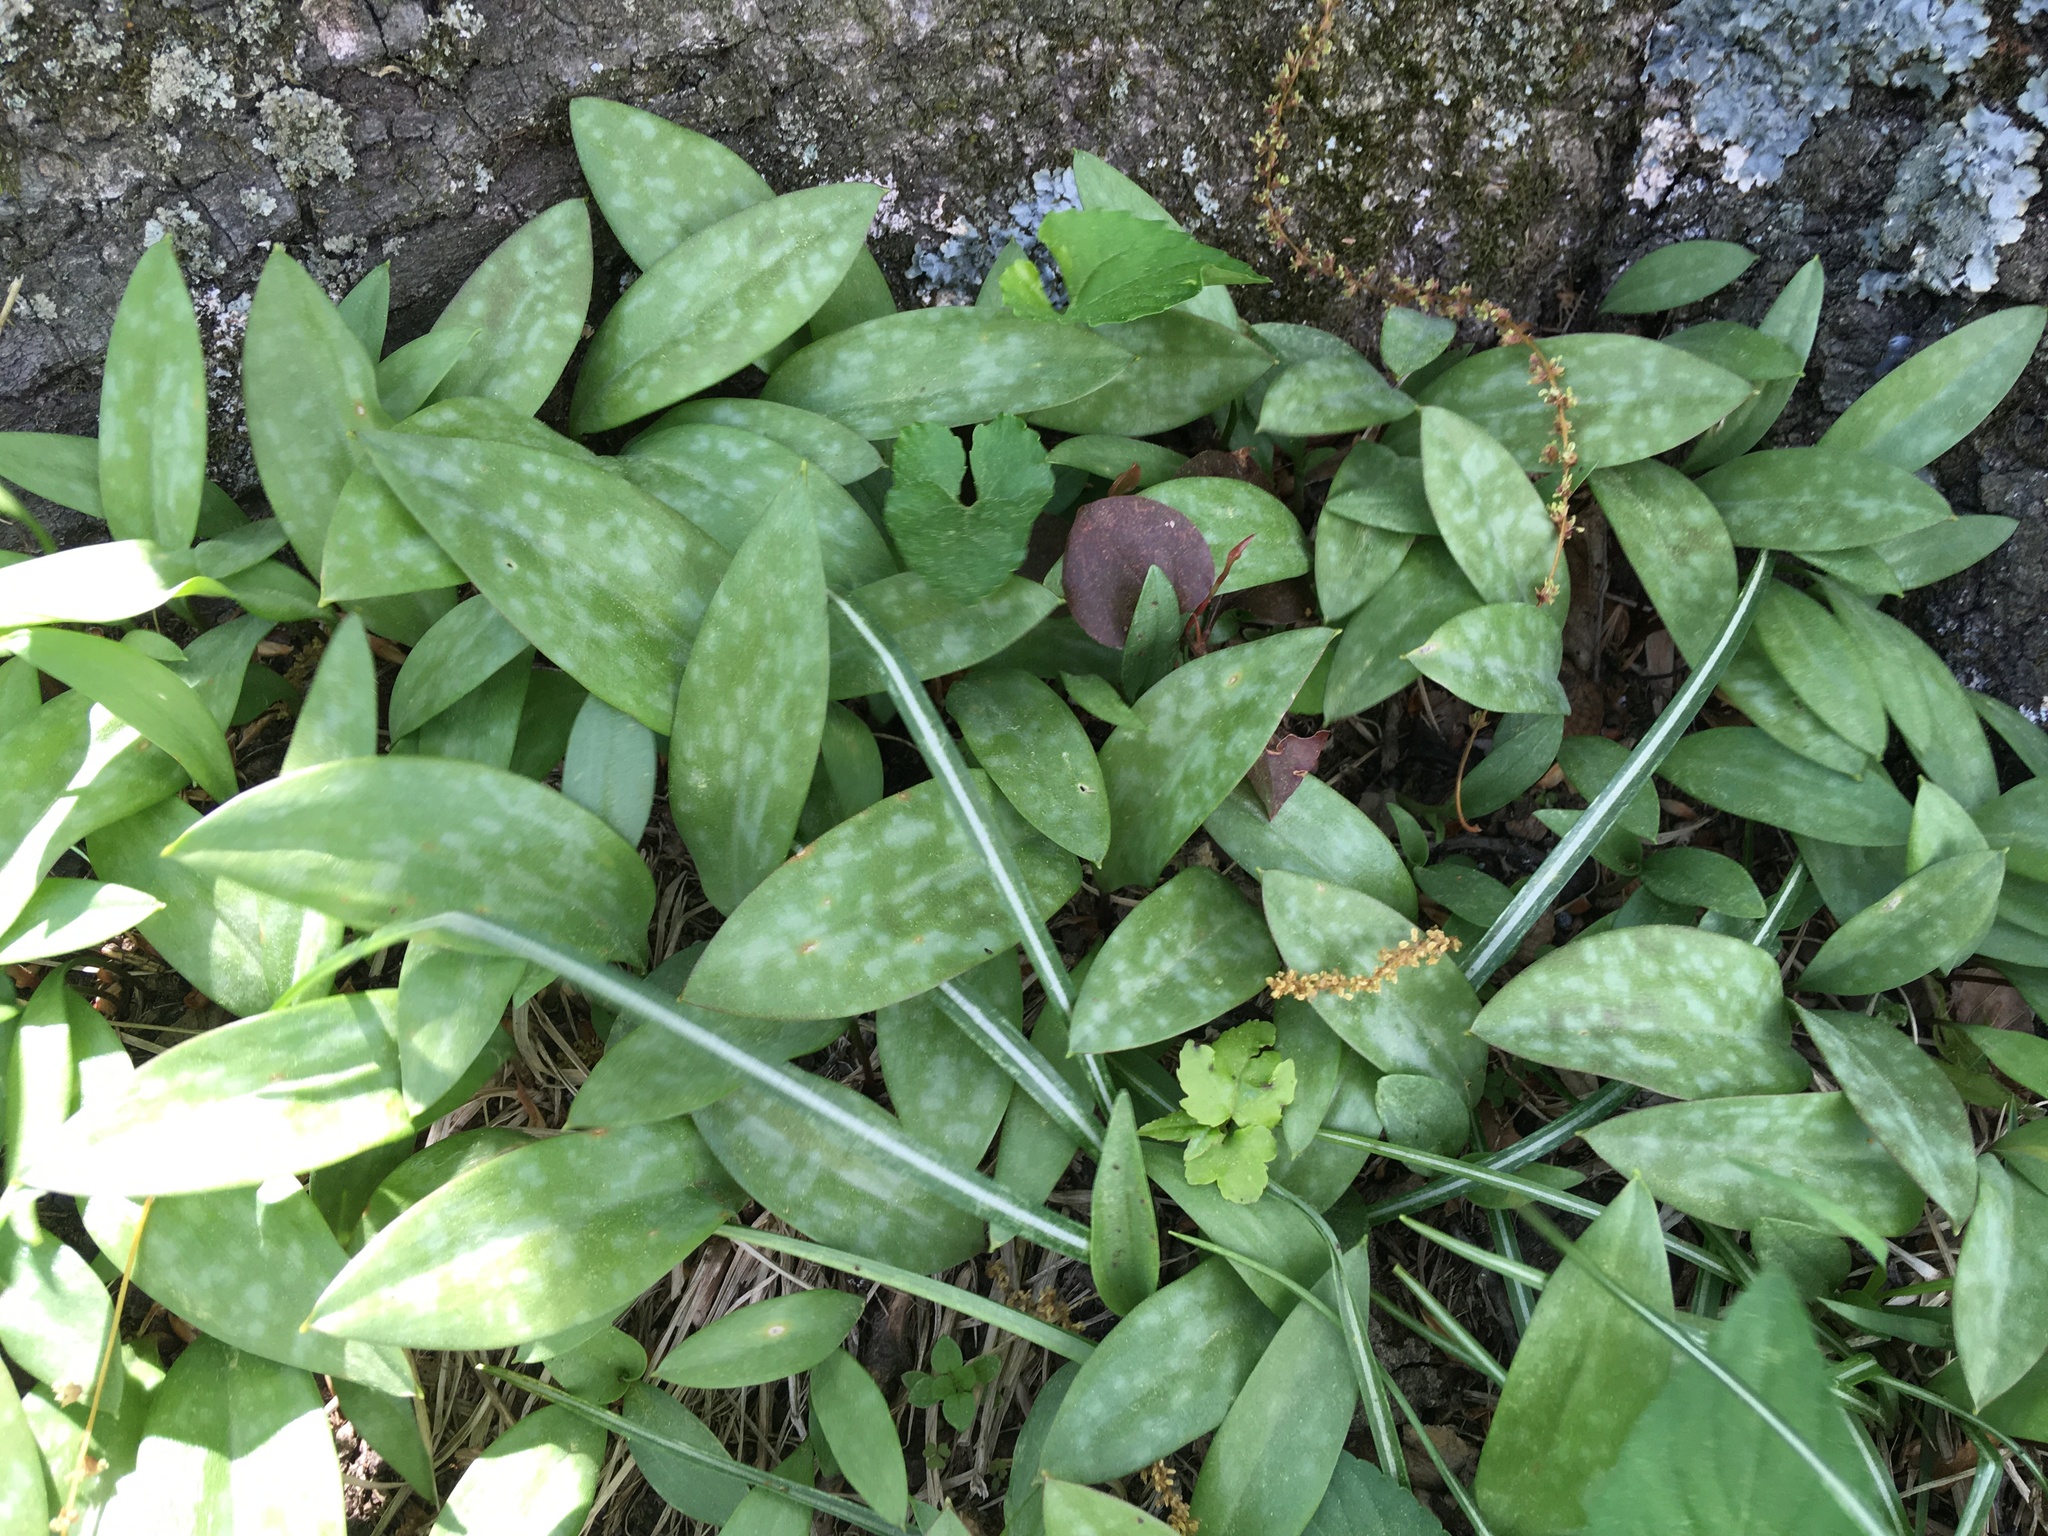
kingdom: Plantae
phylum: Tracheophyta
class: Liliopsida
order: Liliales
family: Liliaceae
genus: Erythronium
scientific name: Erythronium americanum
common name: Yellow adder's-tongue
